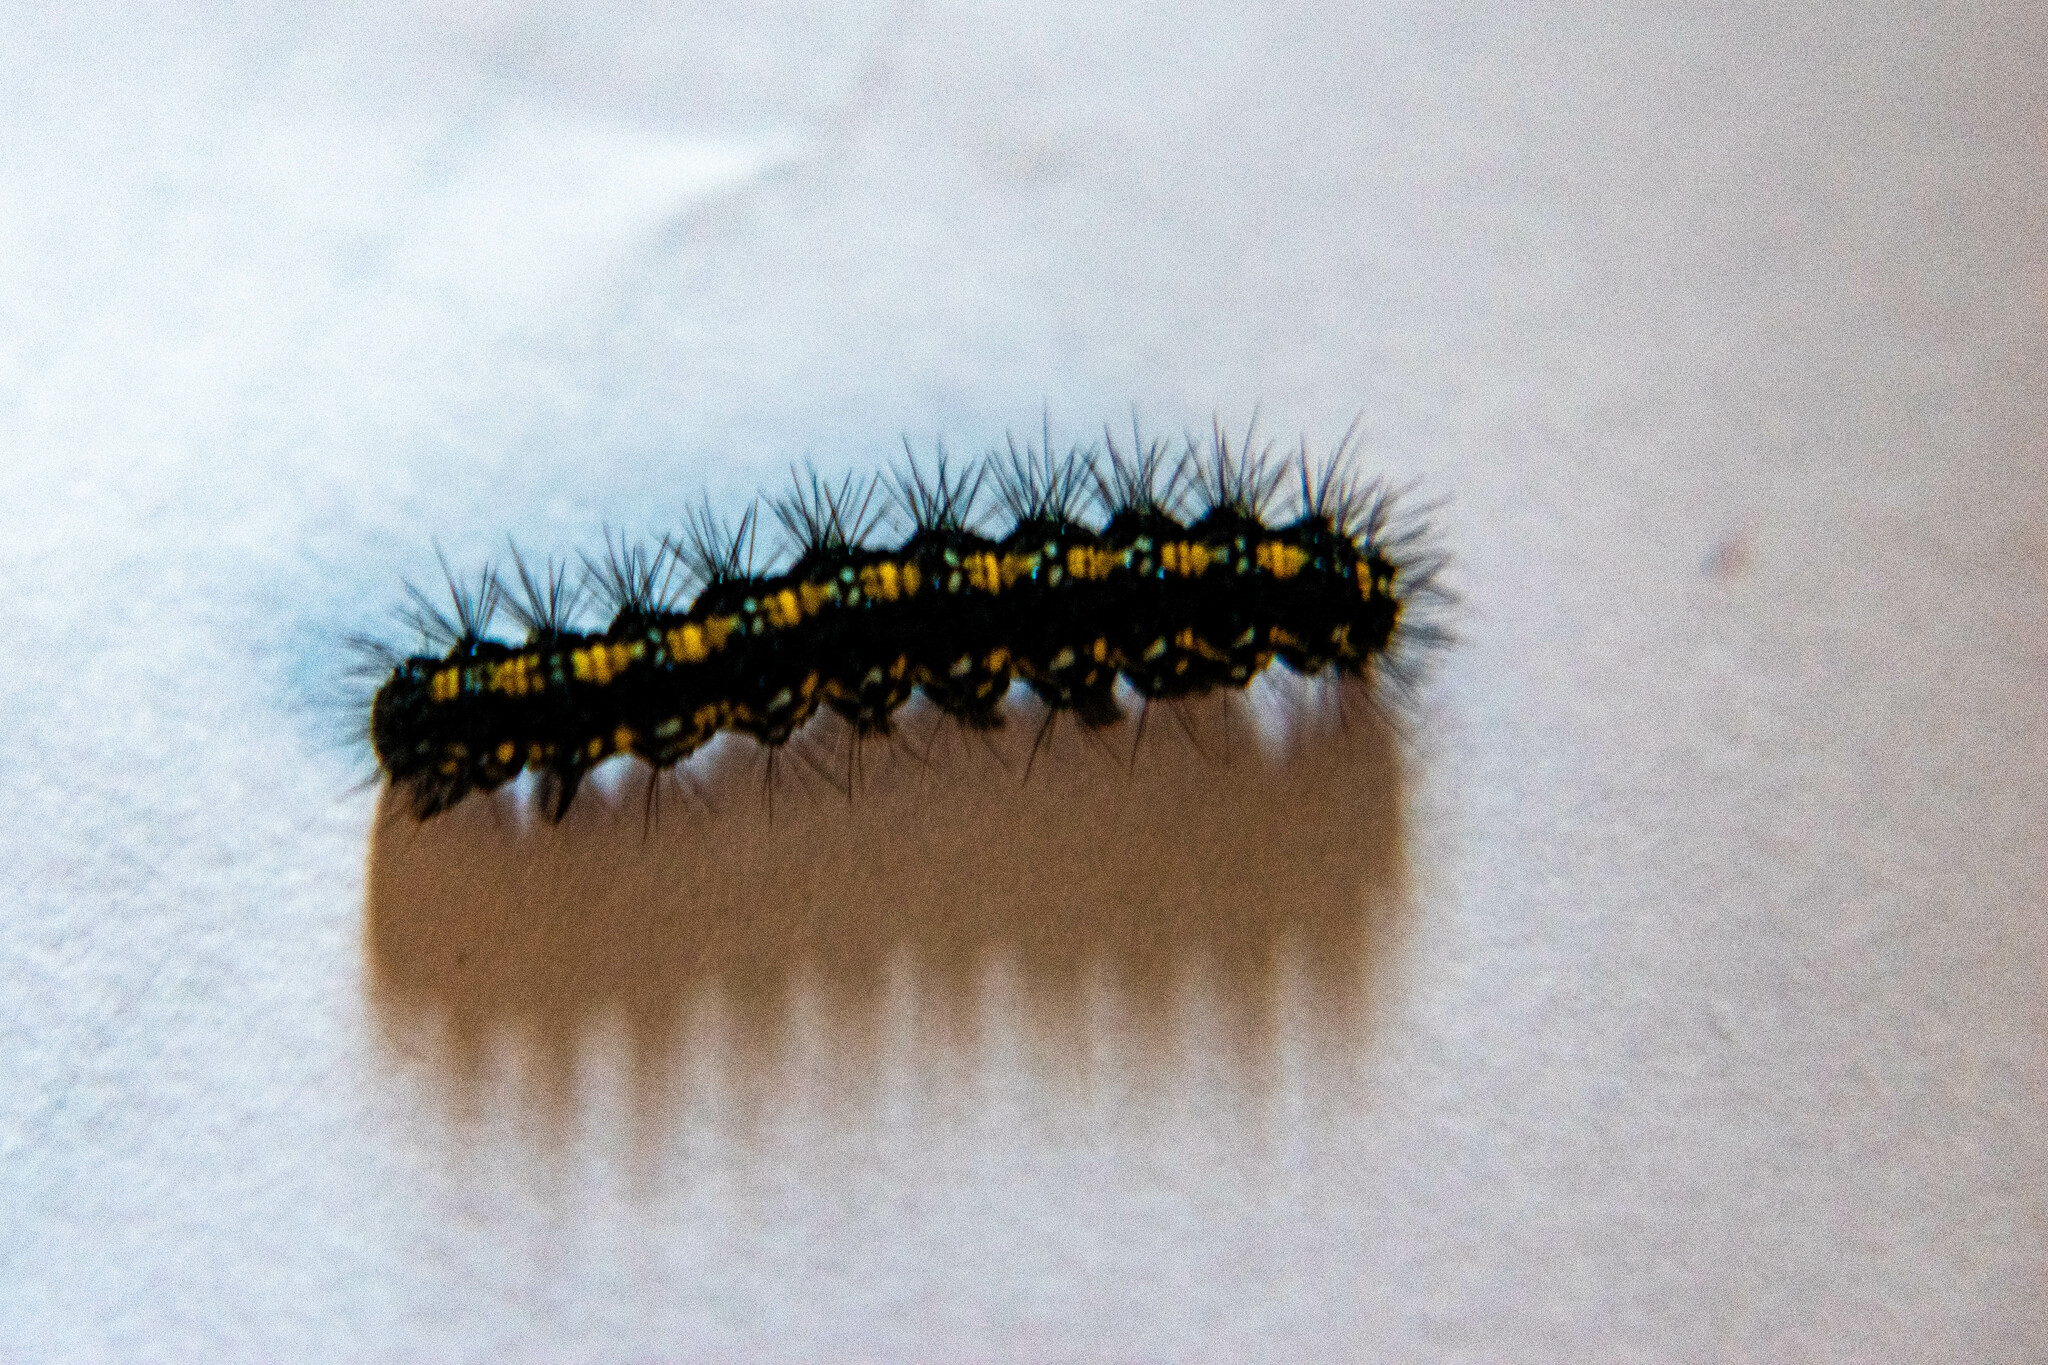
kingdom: Animalia
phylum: Arthropoda
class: Insecta
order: Lepidoptera
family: Erebidae
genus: Callimorpha
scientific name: Callimorpha dominula
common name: Scarlet tiger
